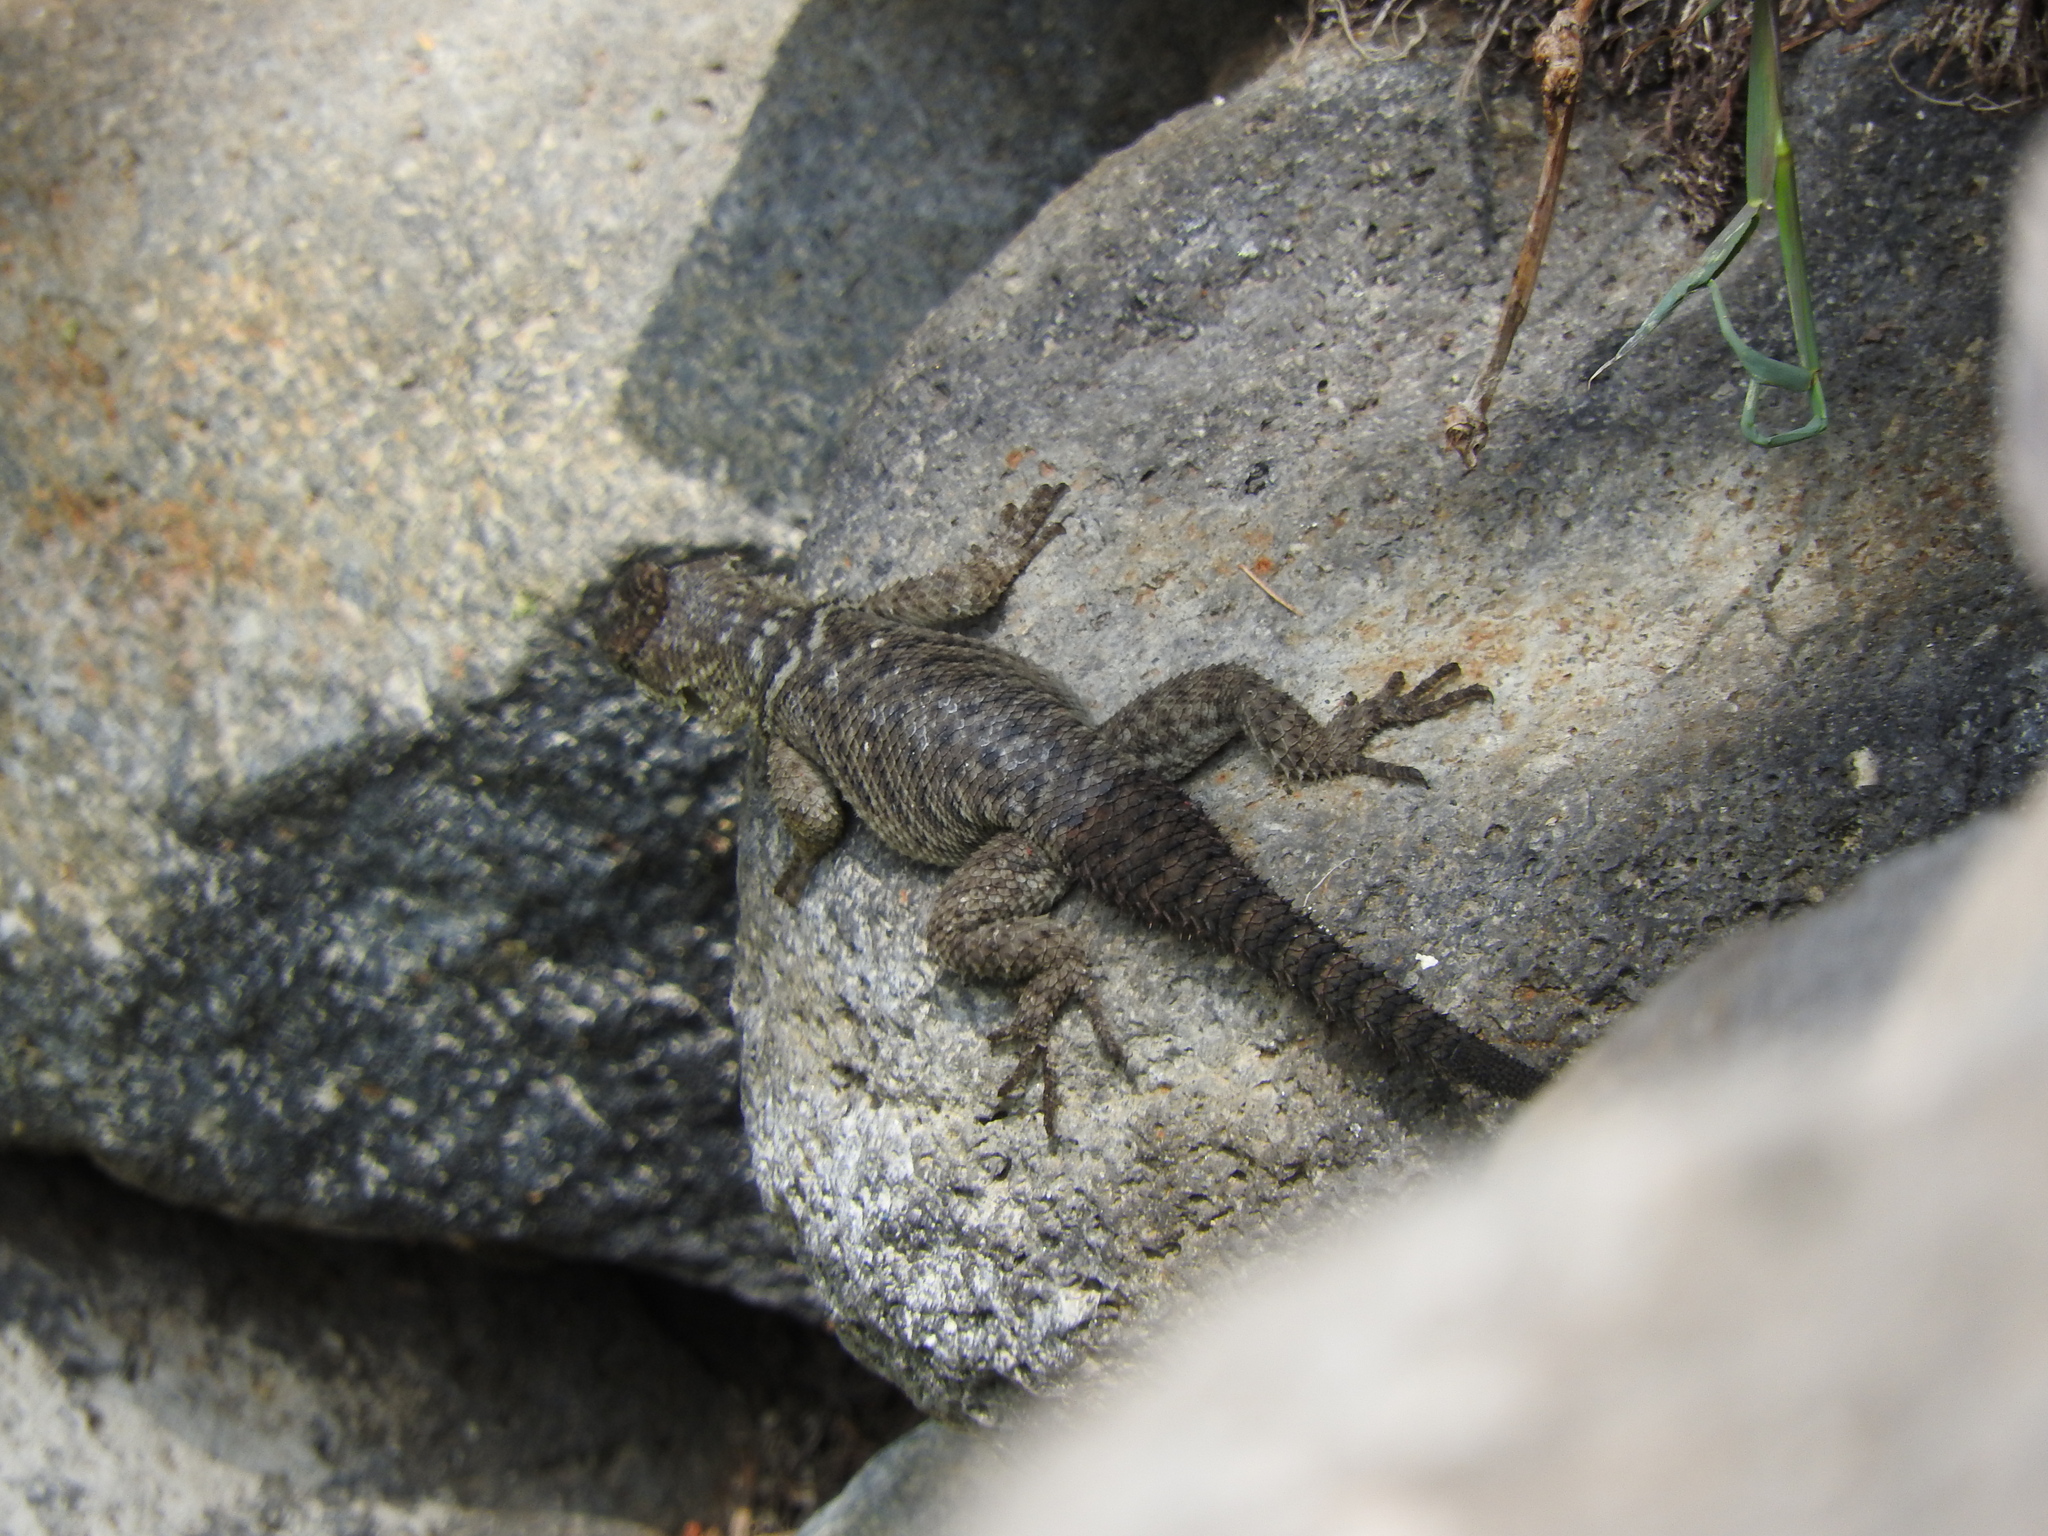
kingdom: Animalia
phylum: Chordata
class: Squamata
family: Phrynosomatidae
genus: Sceloporus
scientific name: Sceloporus dugesii
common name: Duges' spiny lizard
